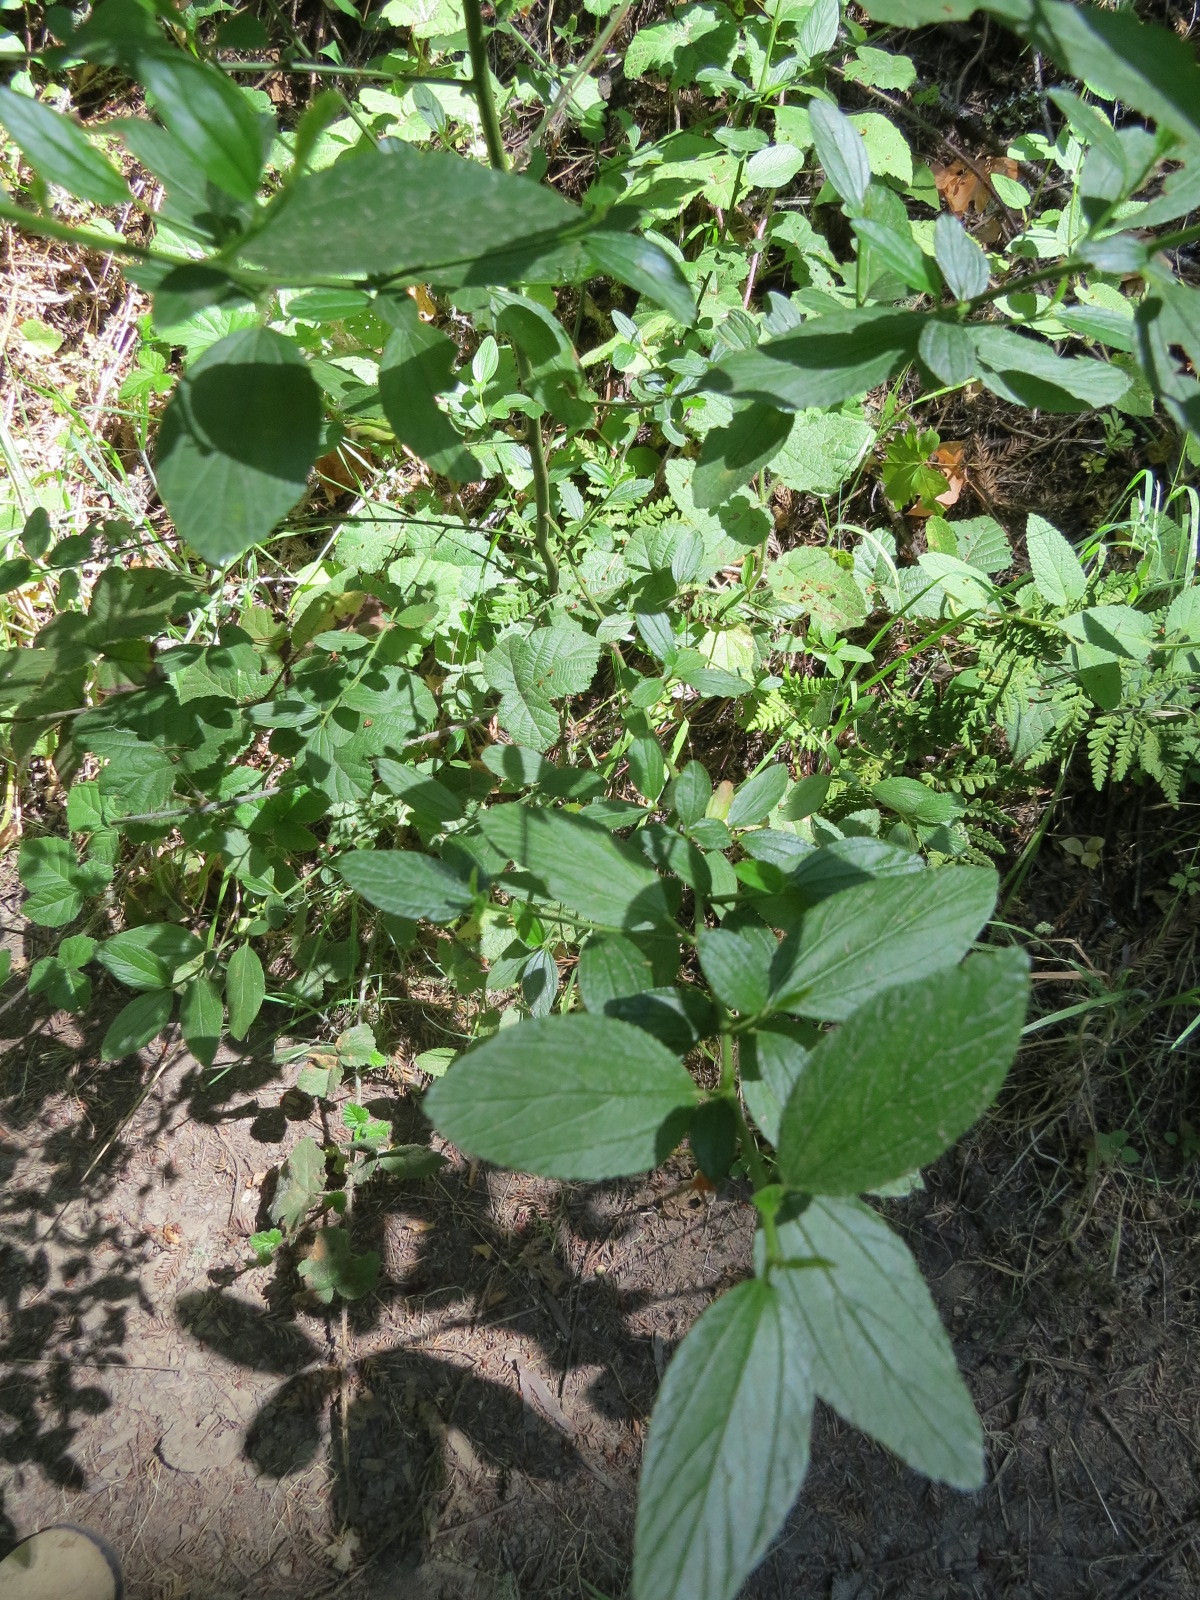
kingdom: Plantae
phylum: Tracheophyta
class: Magnoliopsida
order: Rosales
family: Rhamnaceae
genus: Ceanothus
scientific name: Ceanothus thyrsiflorus
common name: California-lilac
